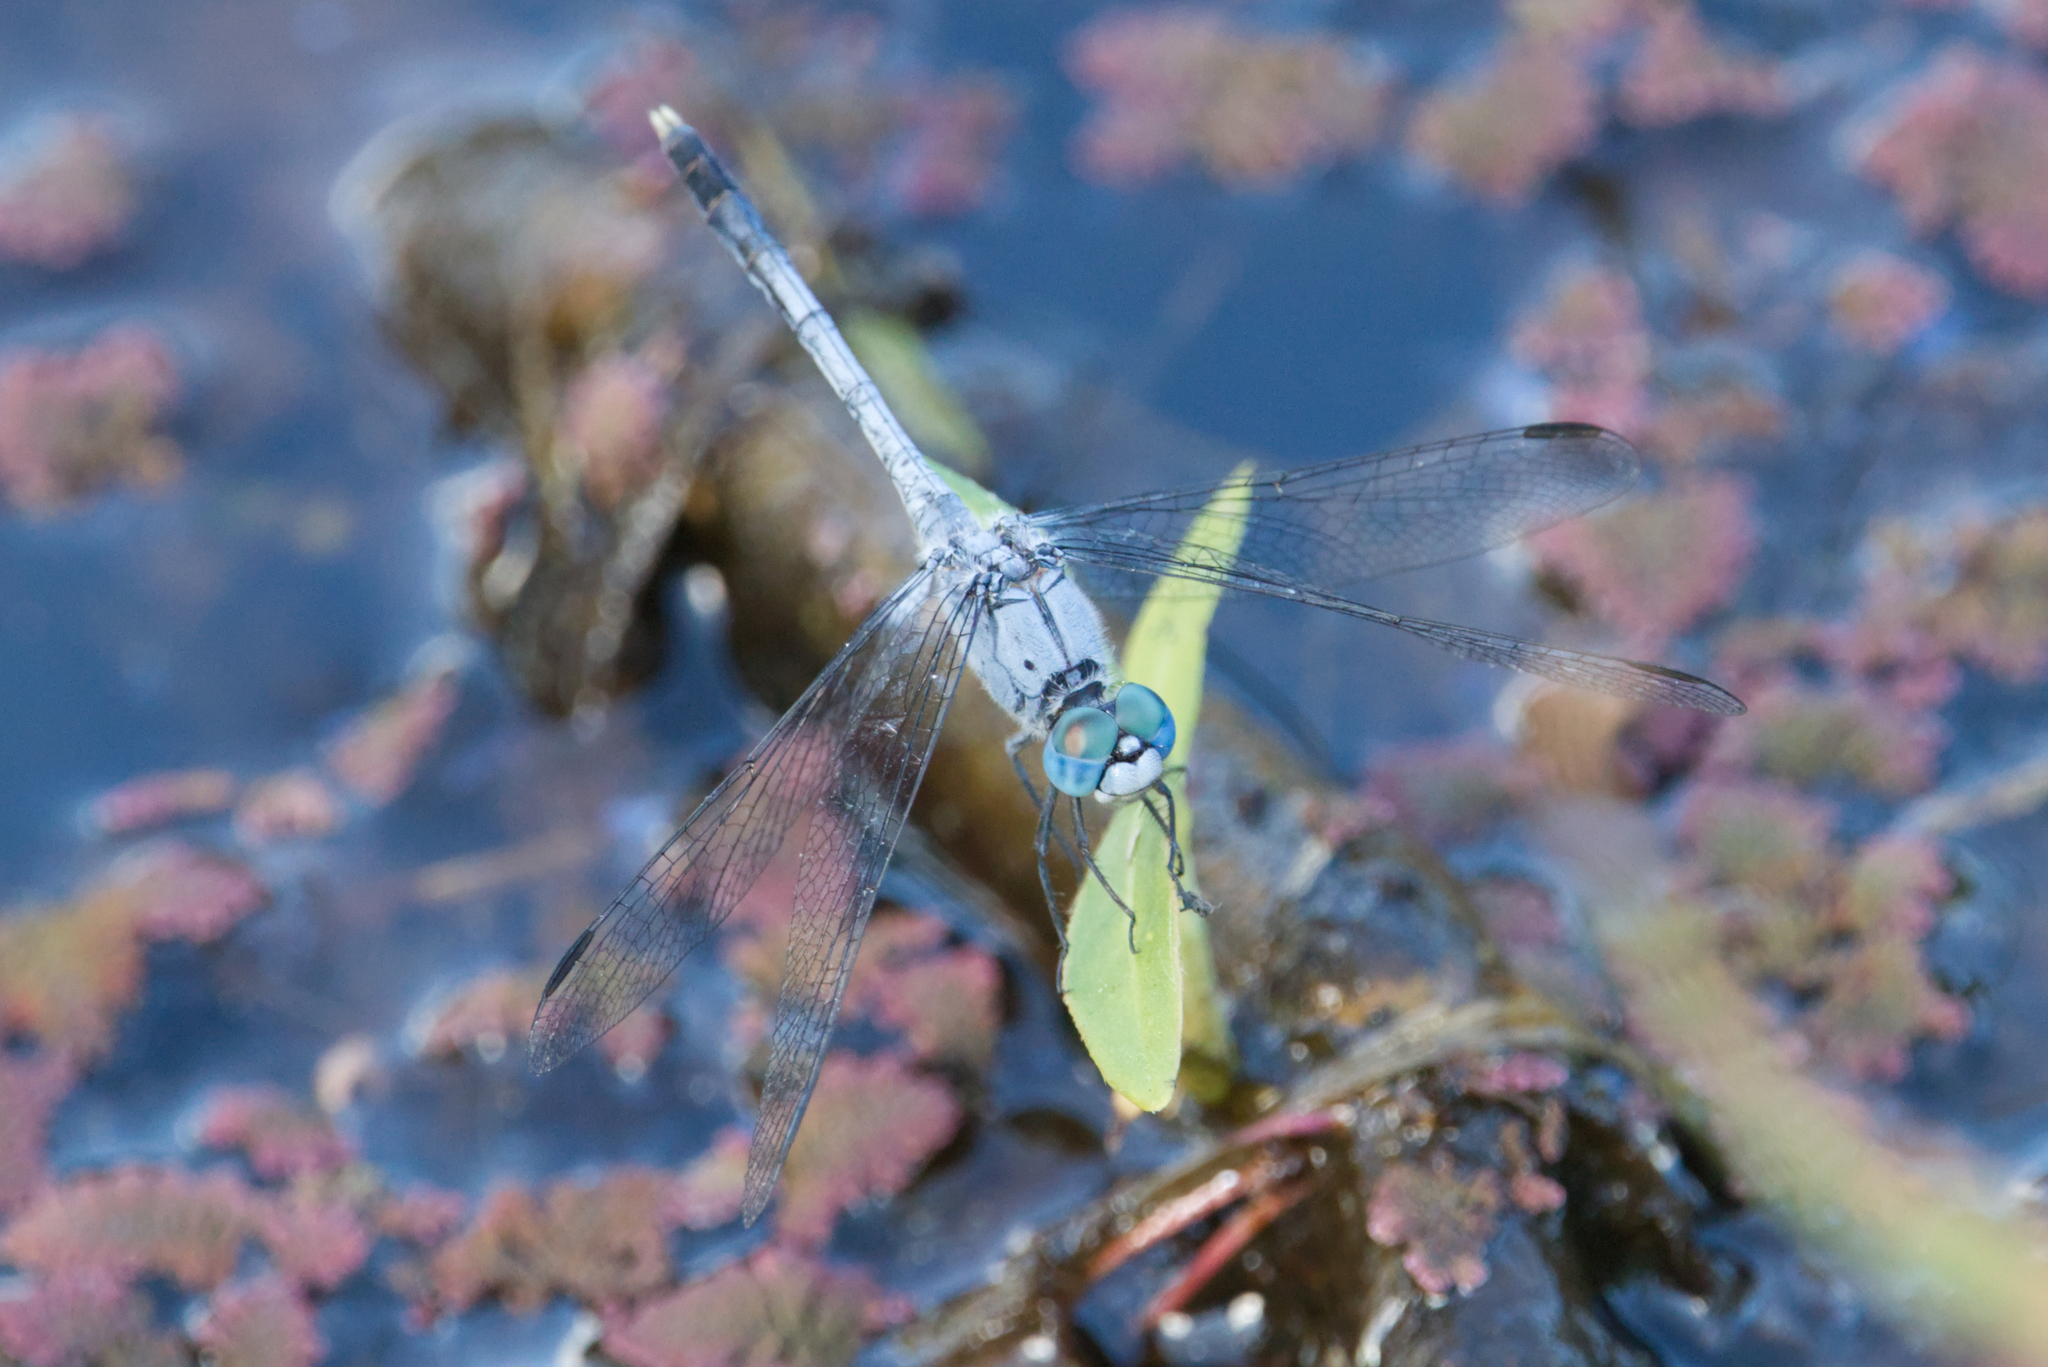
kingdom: Animalia
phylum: Arthropoda
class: Insecta
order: Odonata
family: Libellulidae
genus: Diplacodes
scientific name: Diplacodes trivialis
